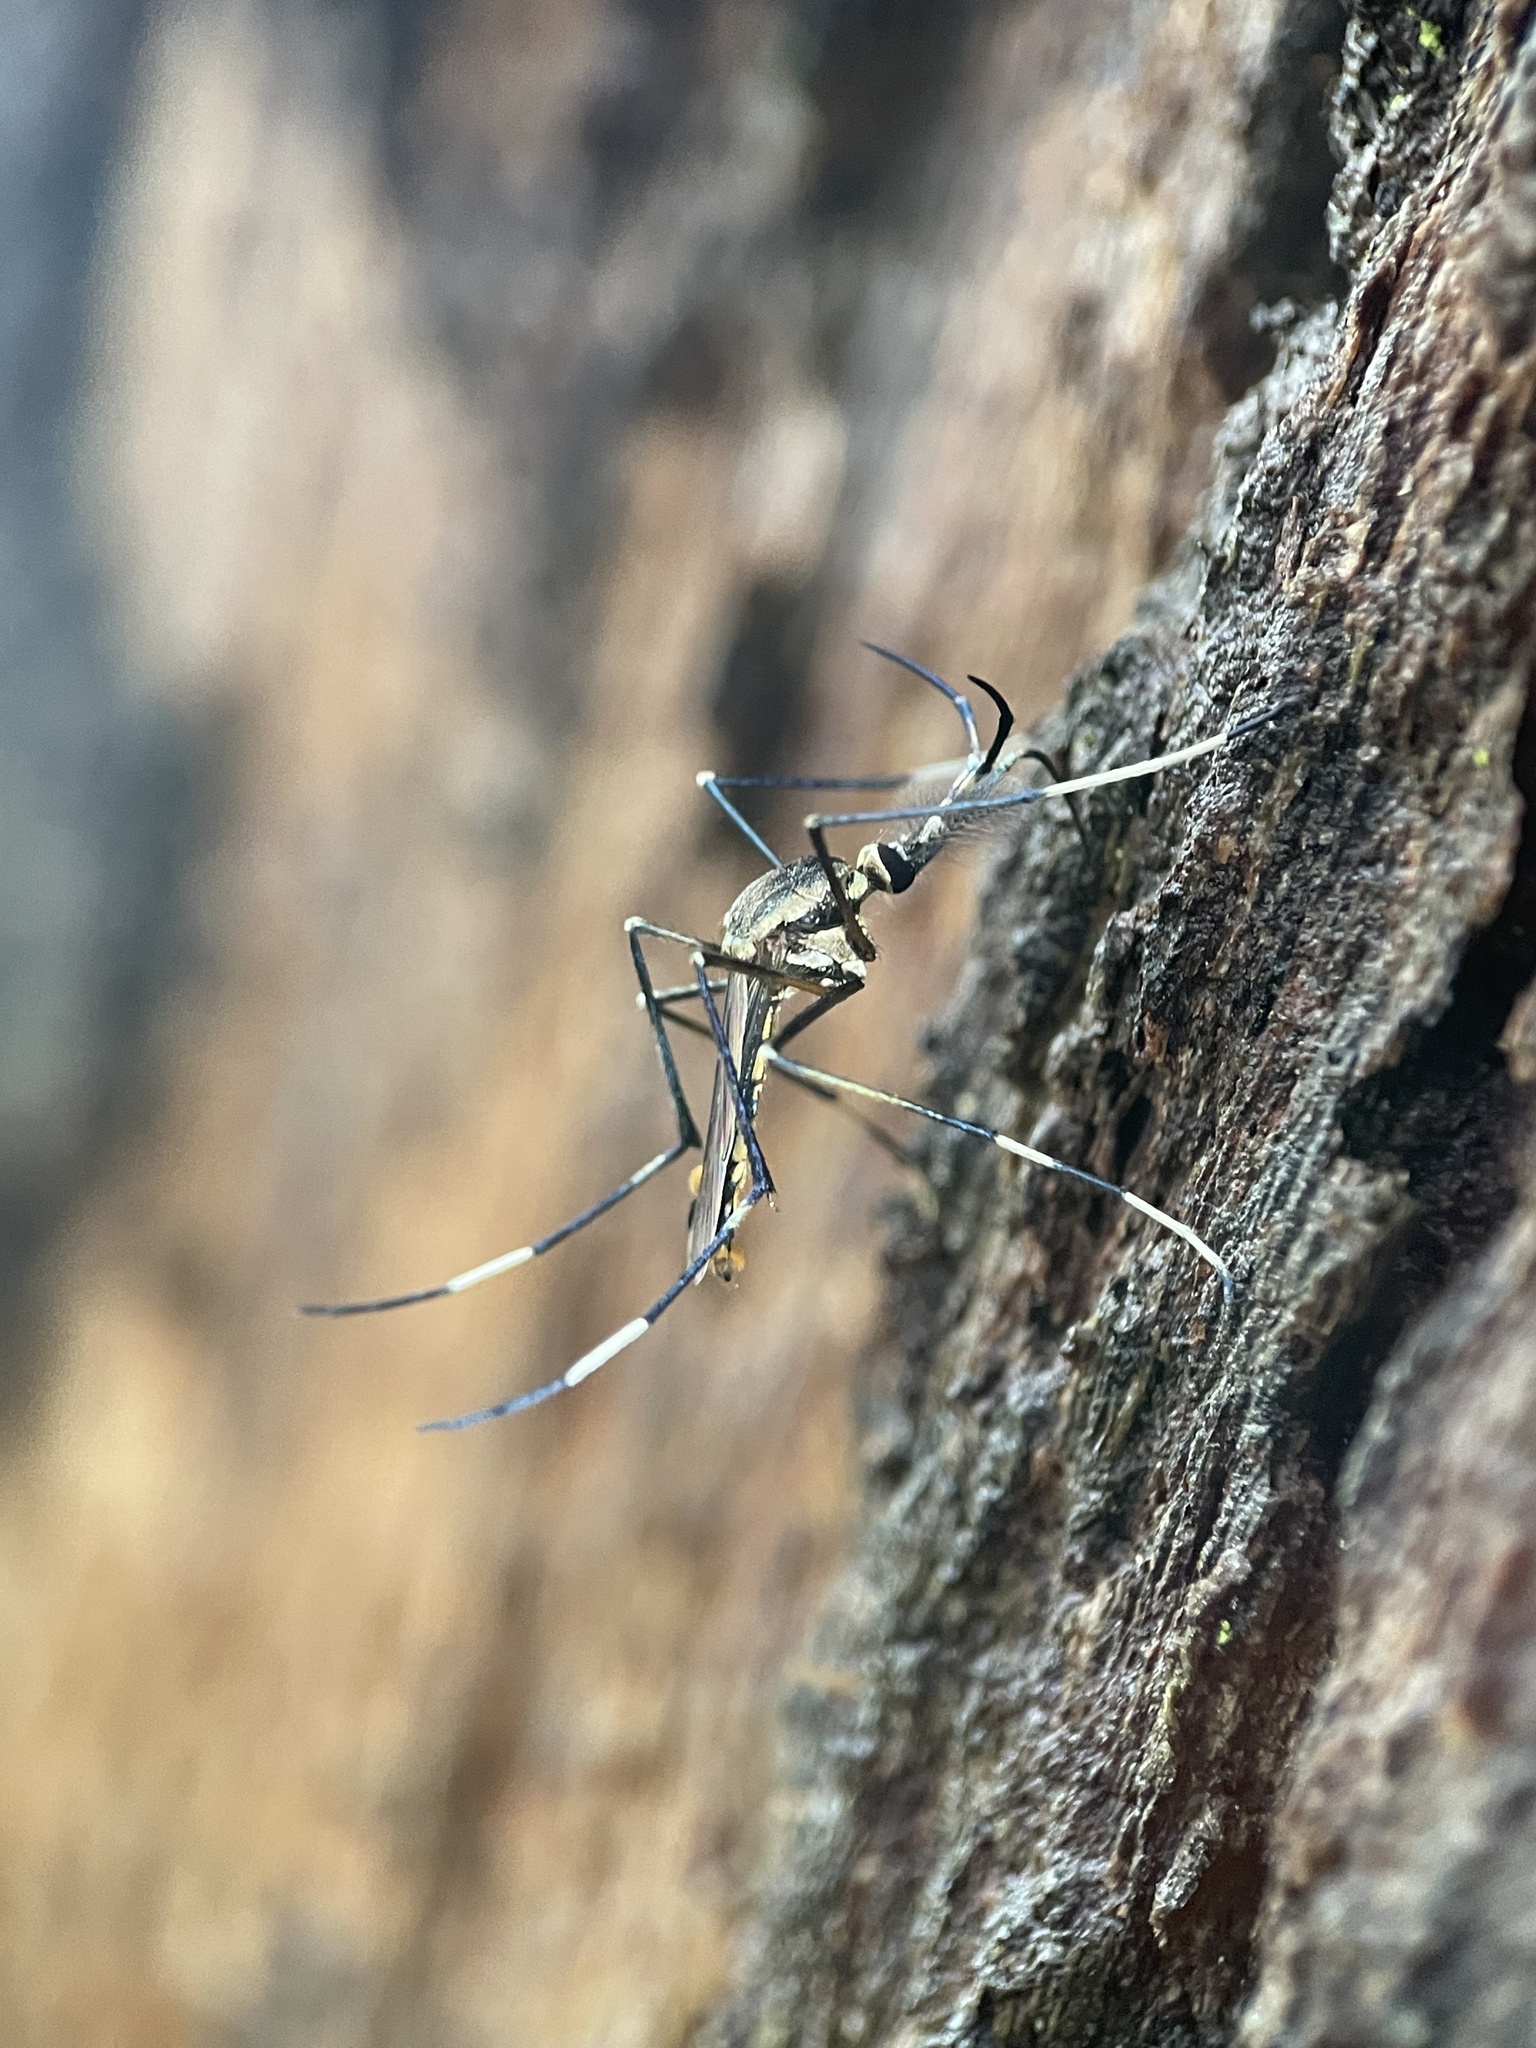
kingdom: Animalia
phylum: Arthropoda
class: Insecta
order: Diptera
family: Culicidae
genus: Toxorhynchites
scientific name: Toxorhynchites speciosus
